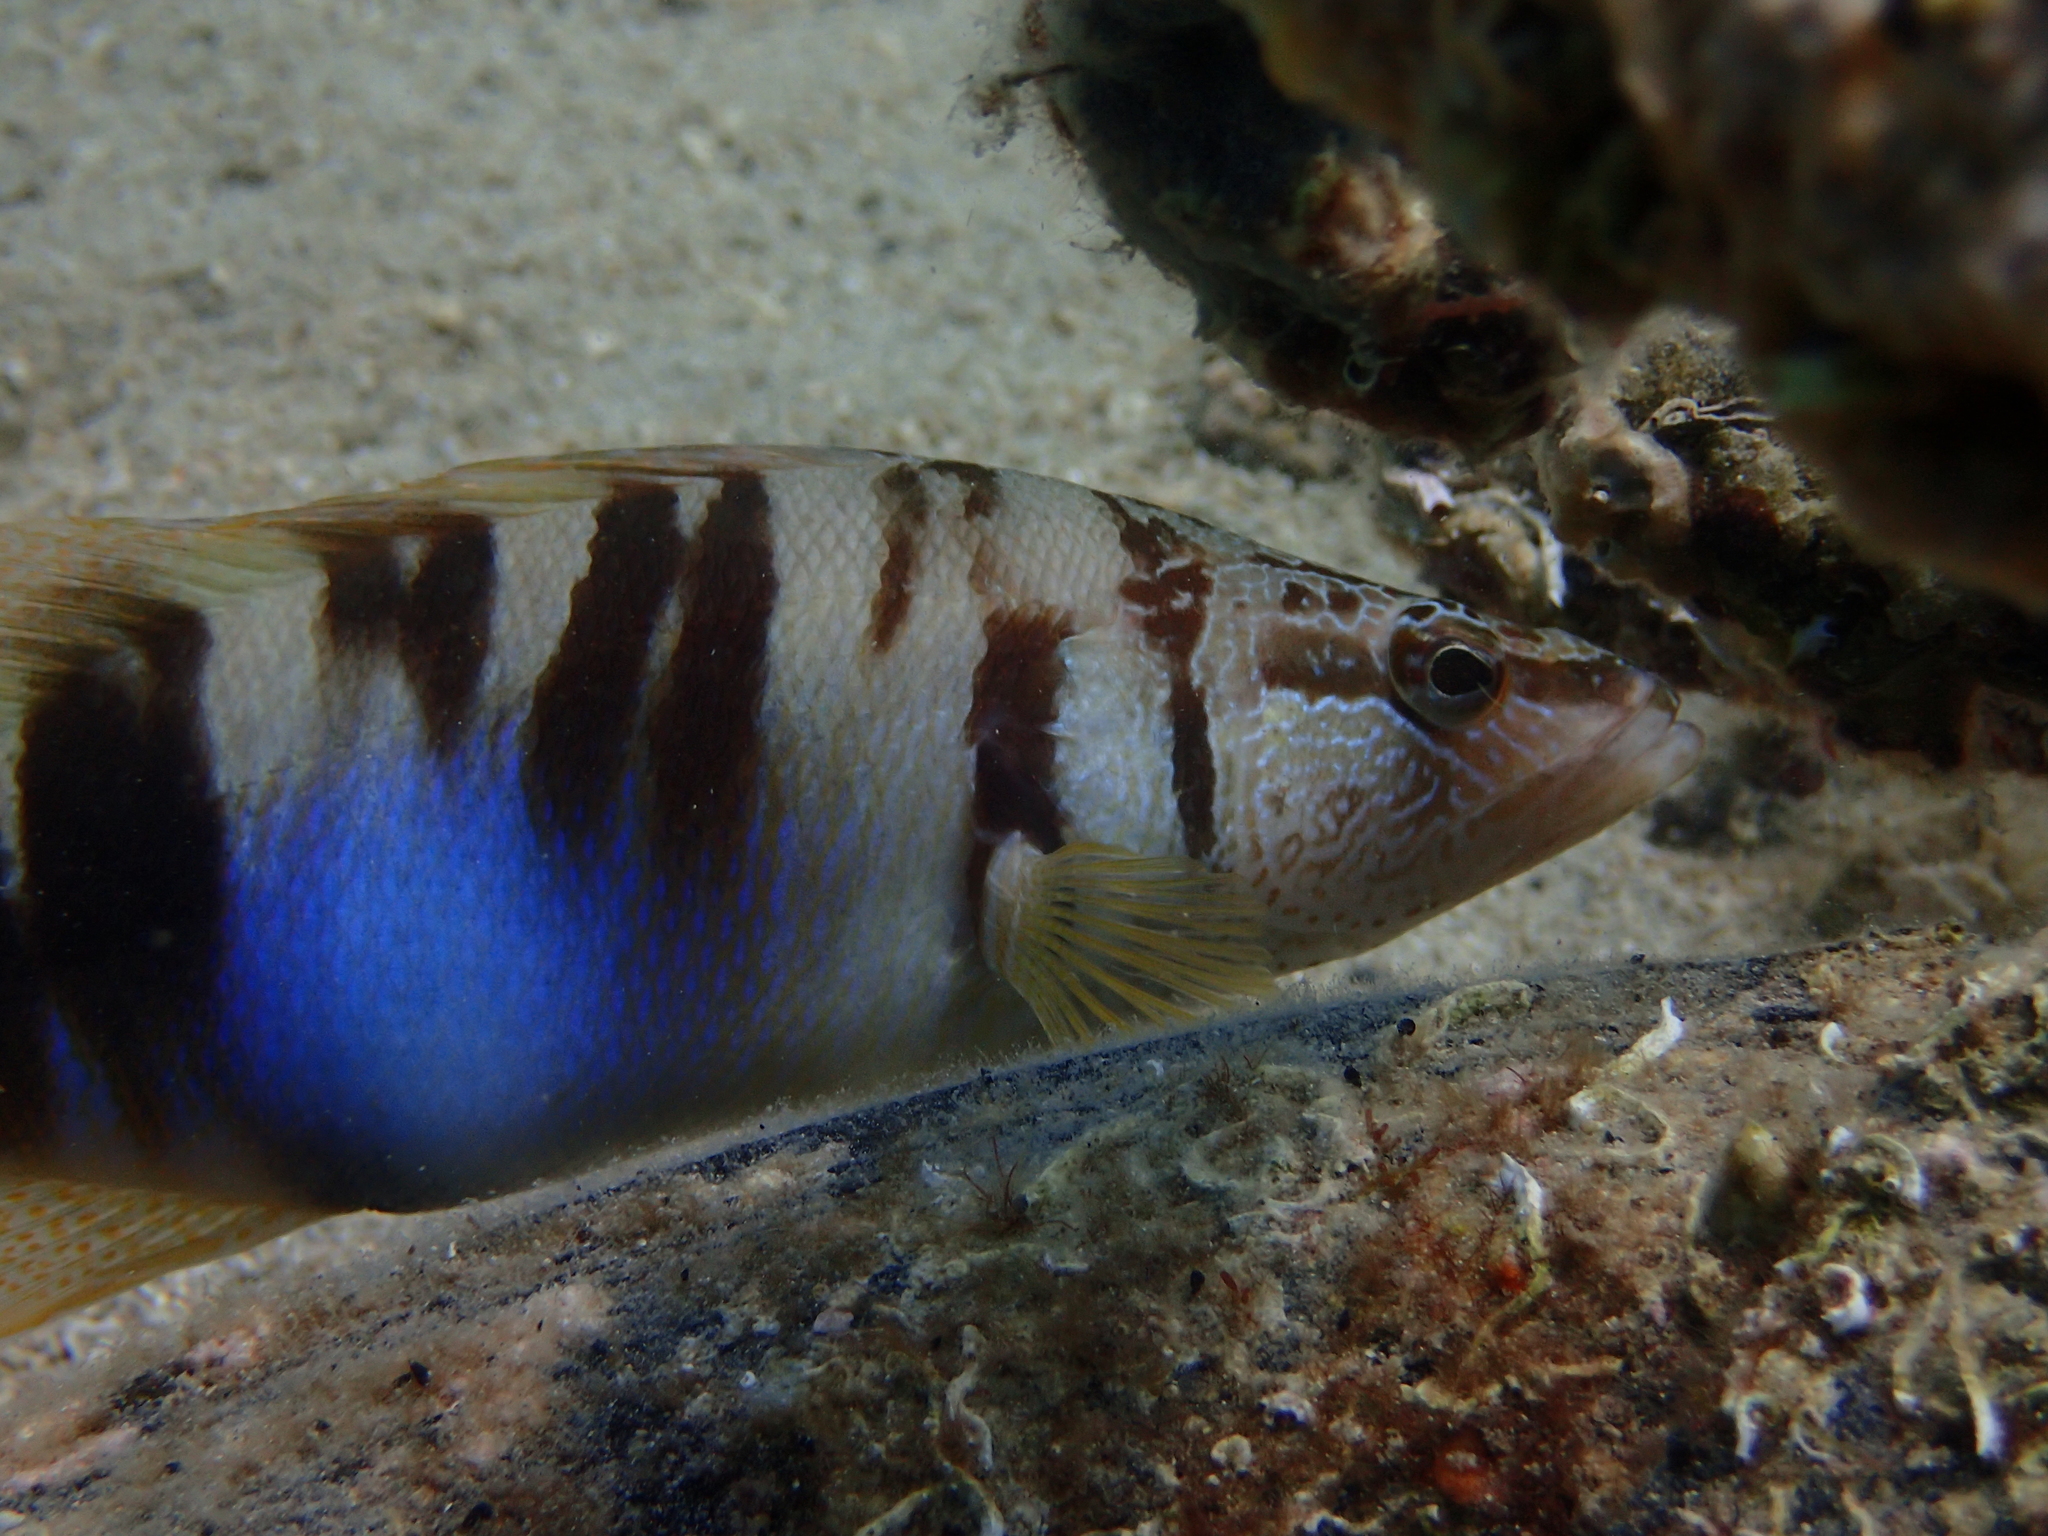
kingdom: Animalia
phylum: Chordata
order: Perciformes
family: Serranidae
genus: Serranus
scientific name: Serranus scriba
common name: Painted comber
